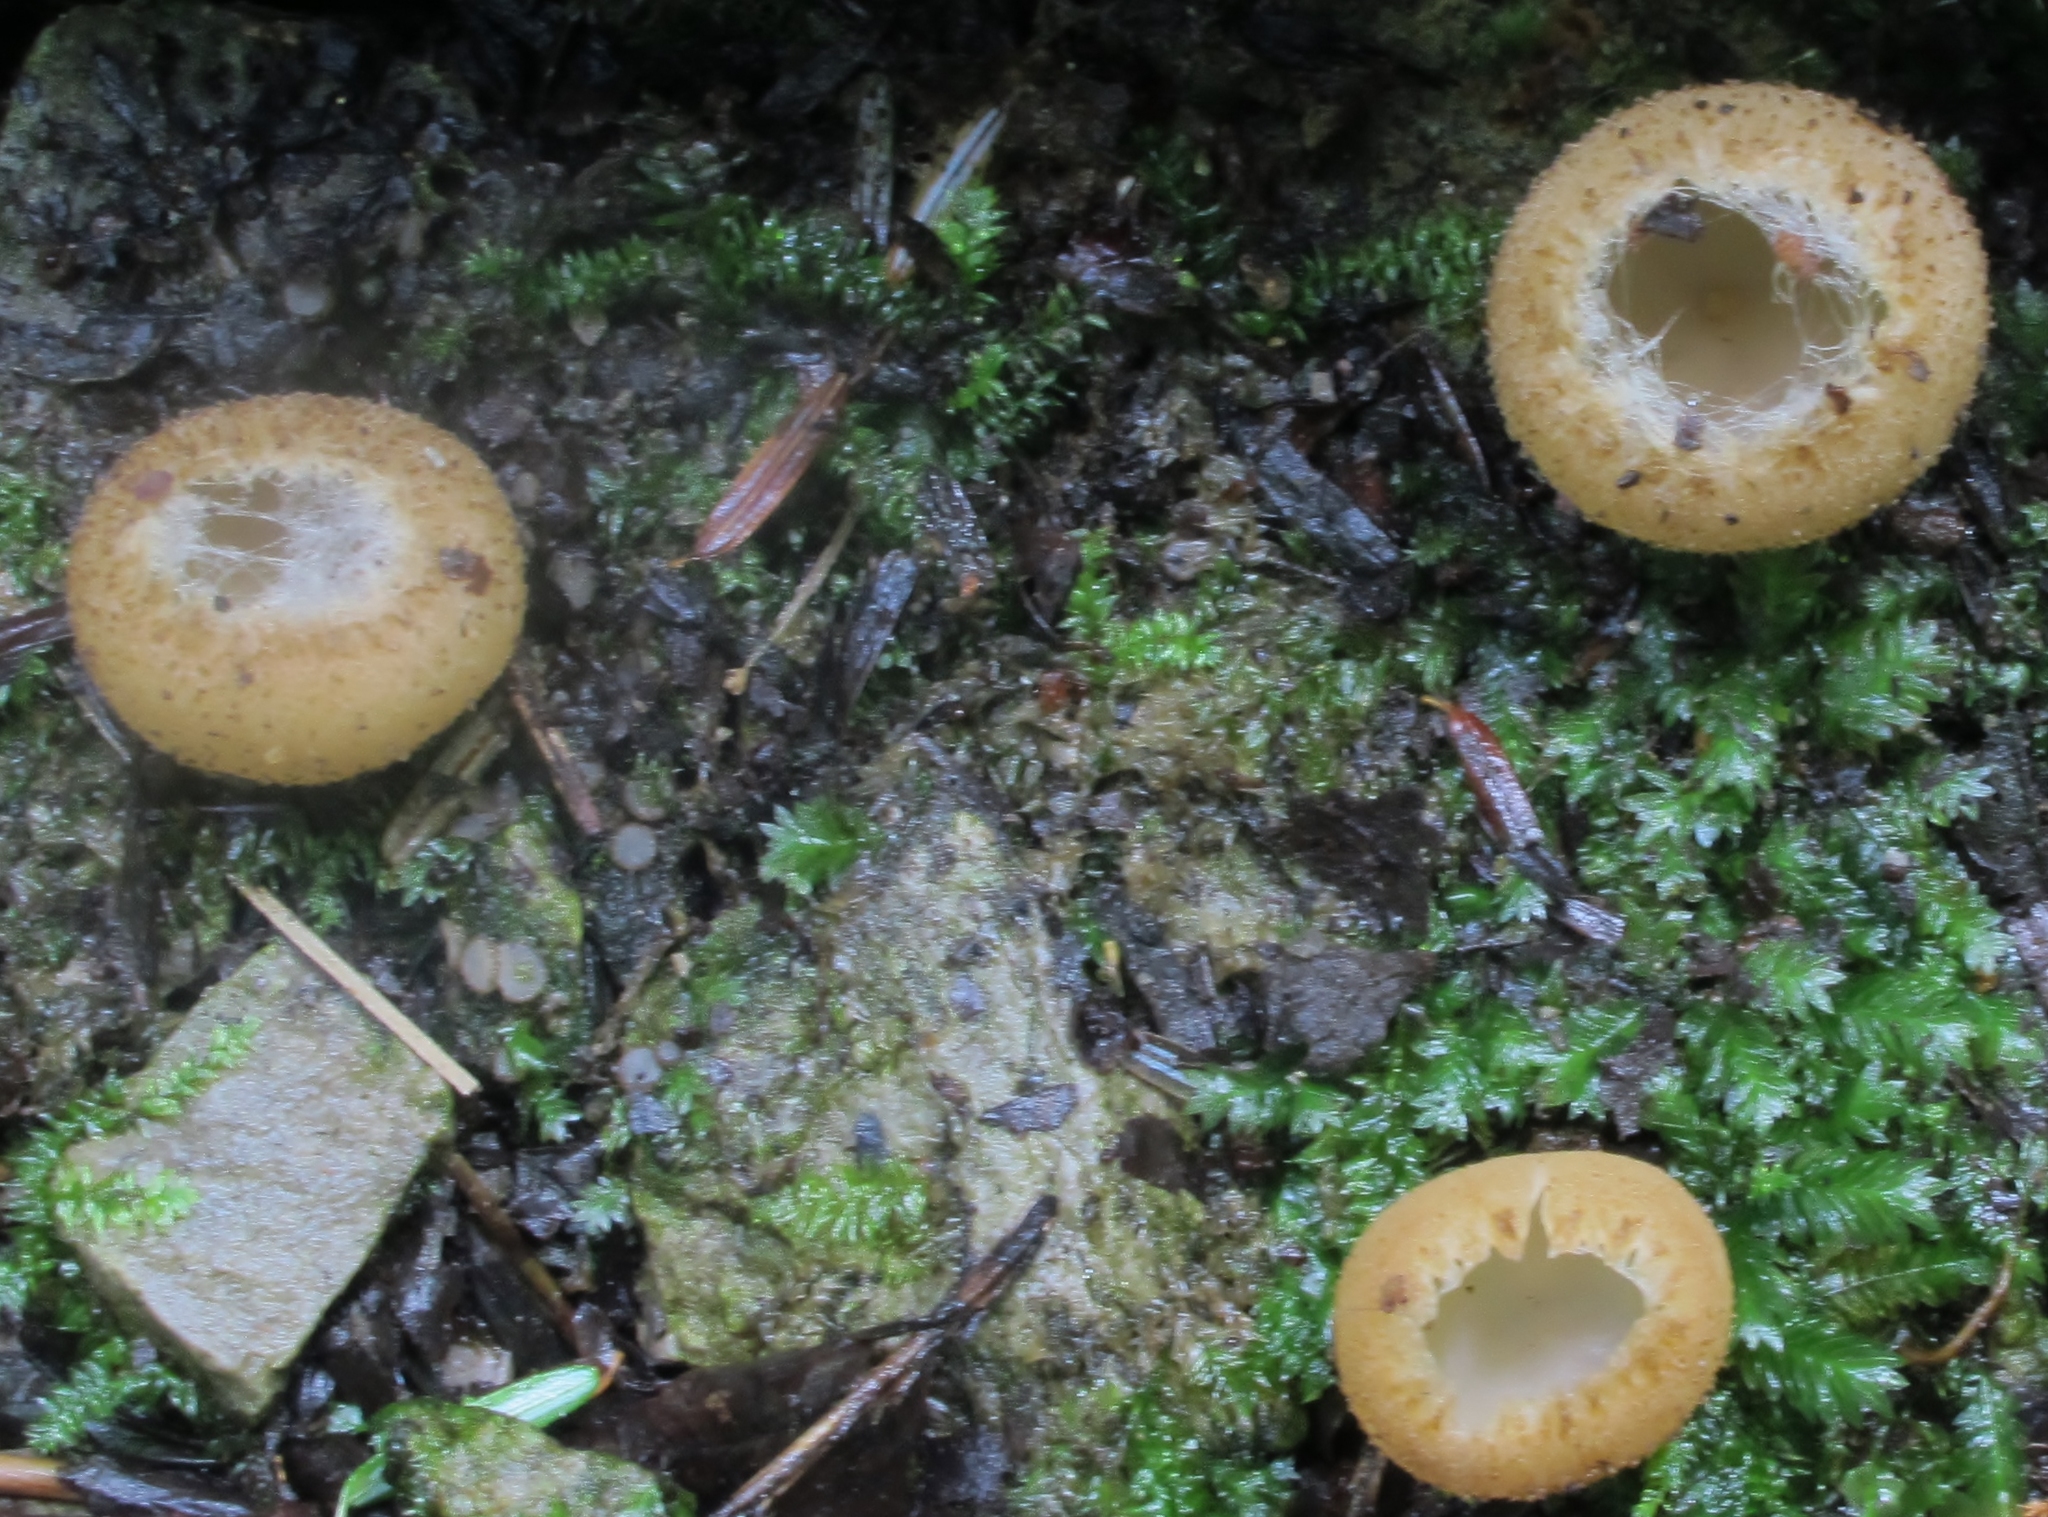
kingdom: Fungi
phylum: Ascomycota
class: Pezizomycetes
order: Pezizales
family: Tarzettaceae
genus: Tarzetta
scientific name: Tarzetta cupularis
